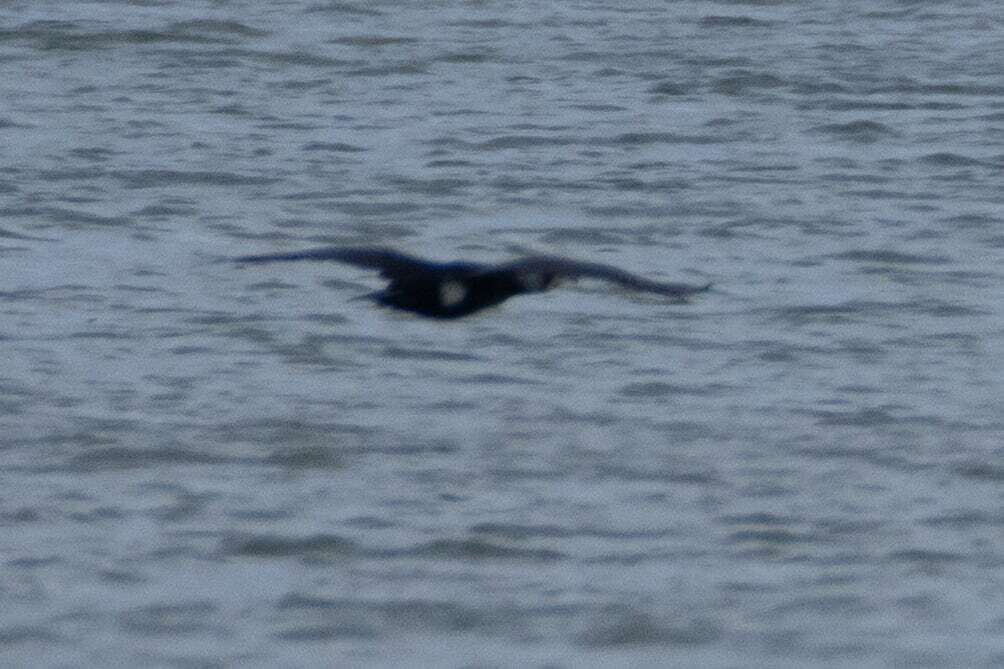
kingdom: Animalia
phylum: Chordata
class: Aves
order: Suliformes
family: Phalacrocoracidae
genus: Phalacrocorax
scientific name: Phalacrocorax carbo
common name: Great cormorant
